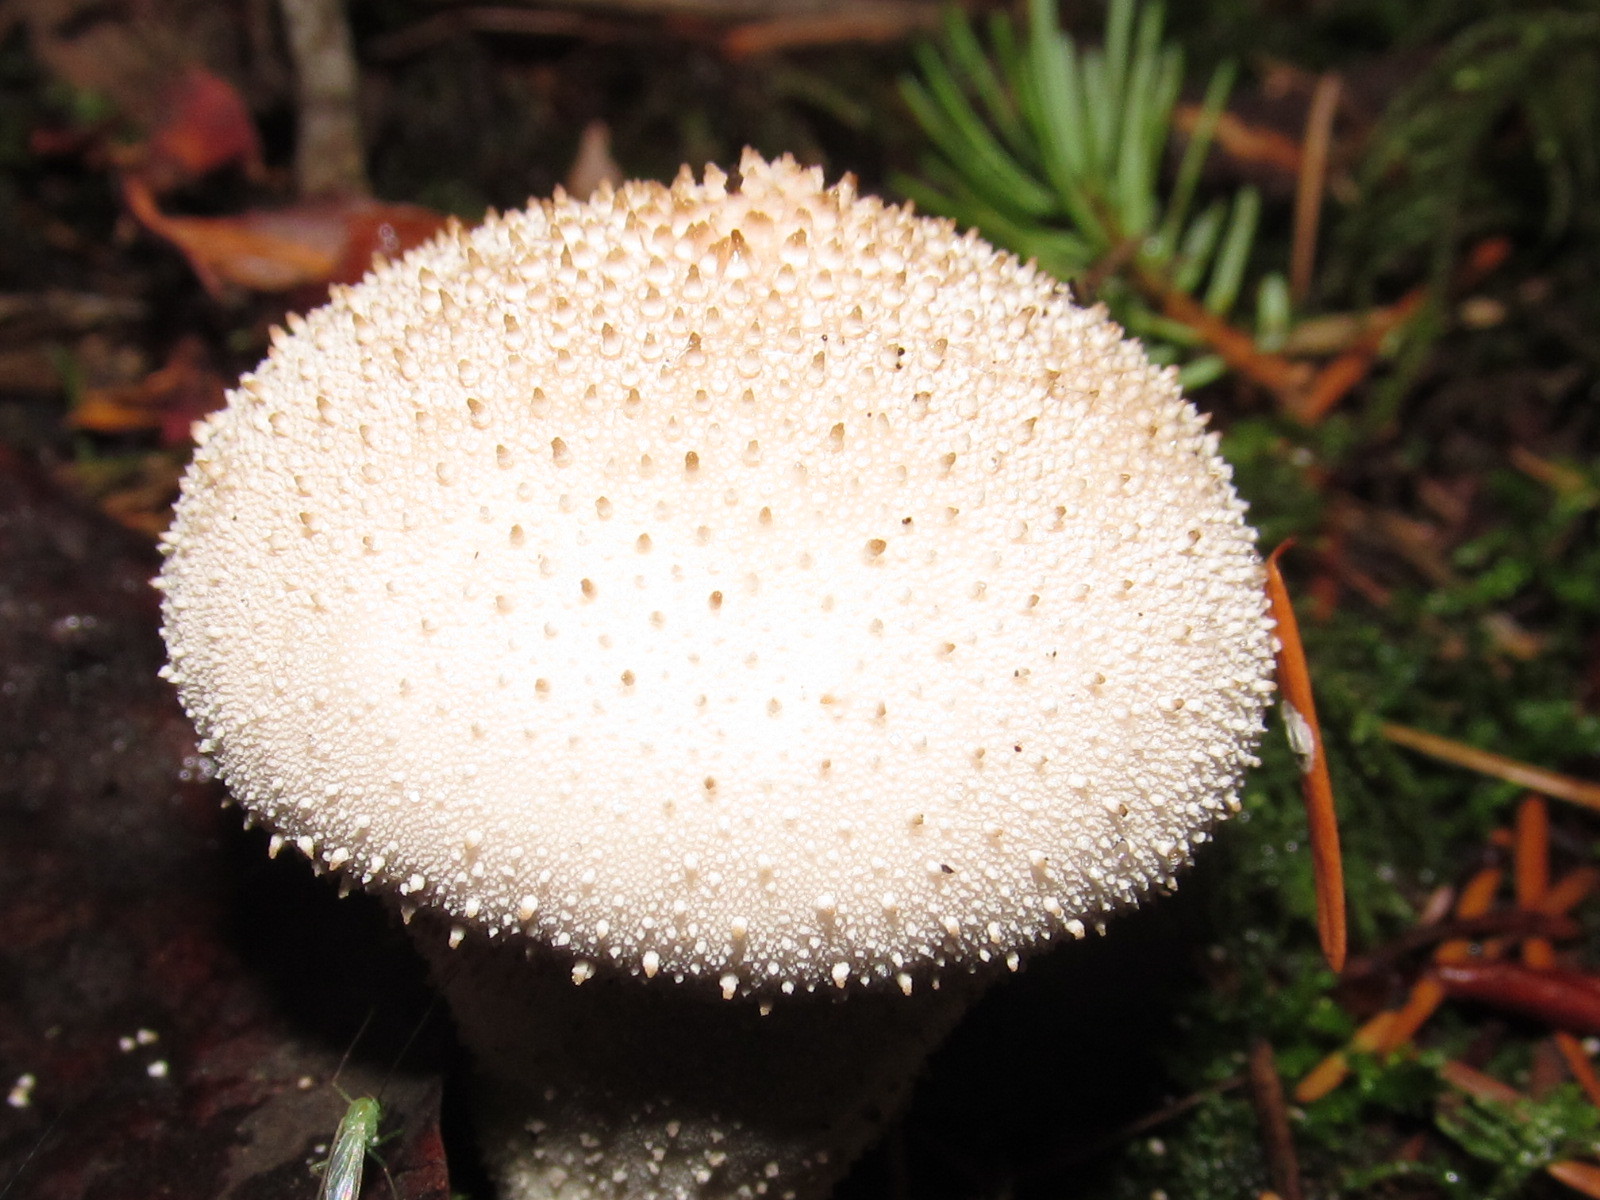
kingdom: Fungi
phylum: Basidiomycota
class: Agaricomycetes
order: Agaricales
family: Lycoperdaceae
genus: Lycoperdon
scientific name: Lycoperdon perlatum
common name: Common puffball
